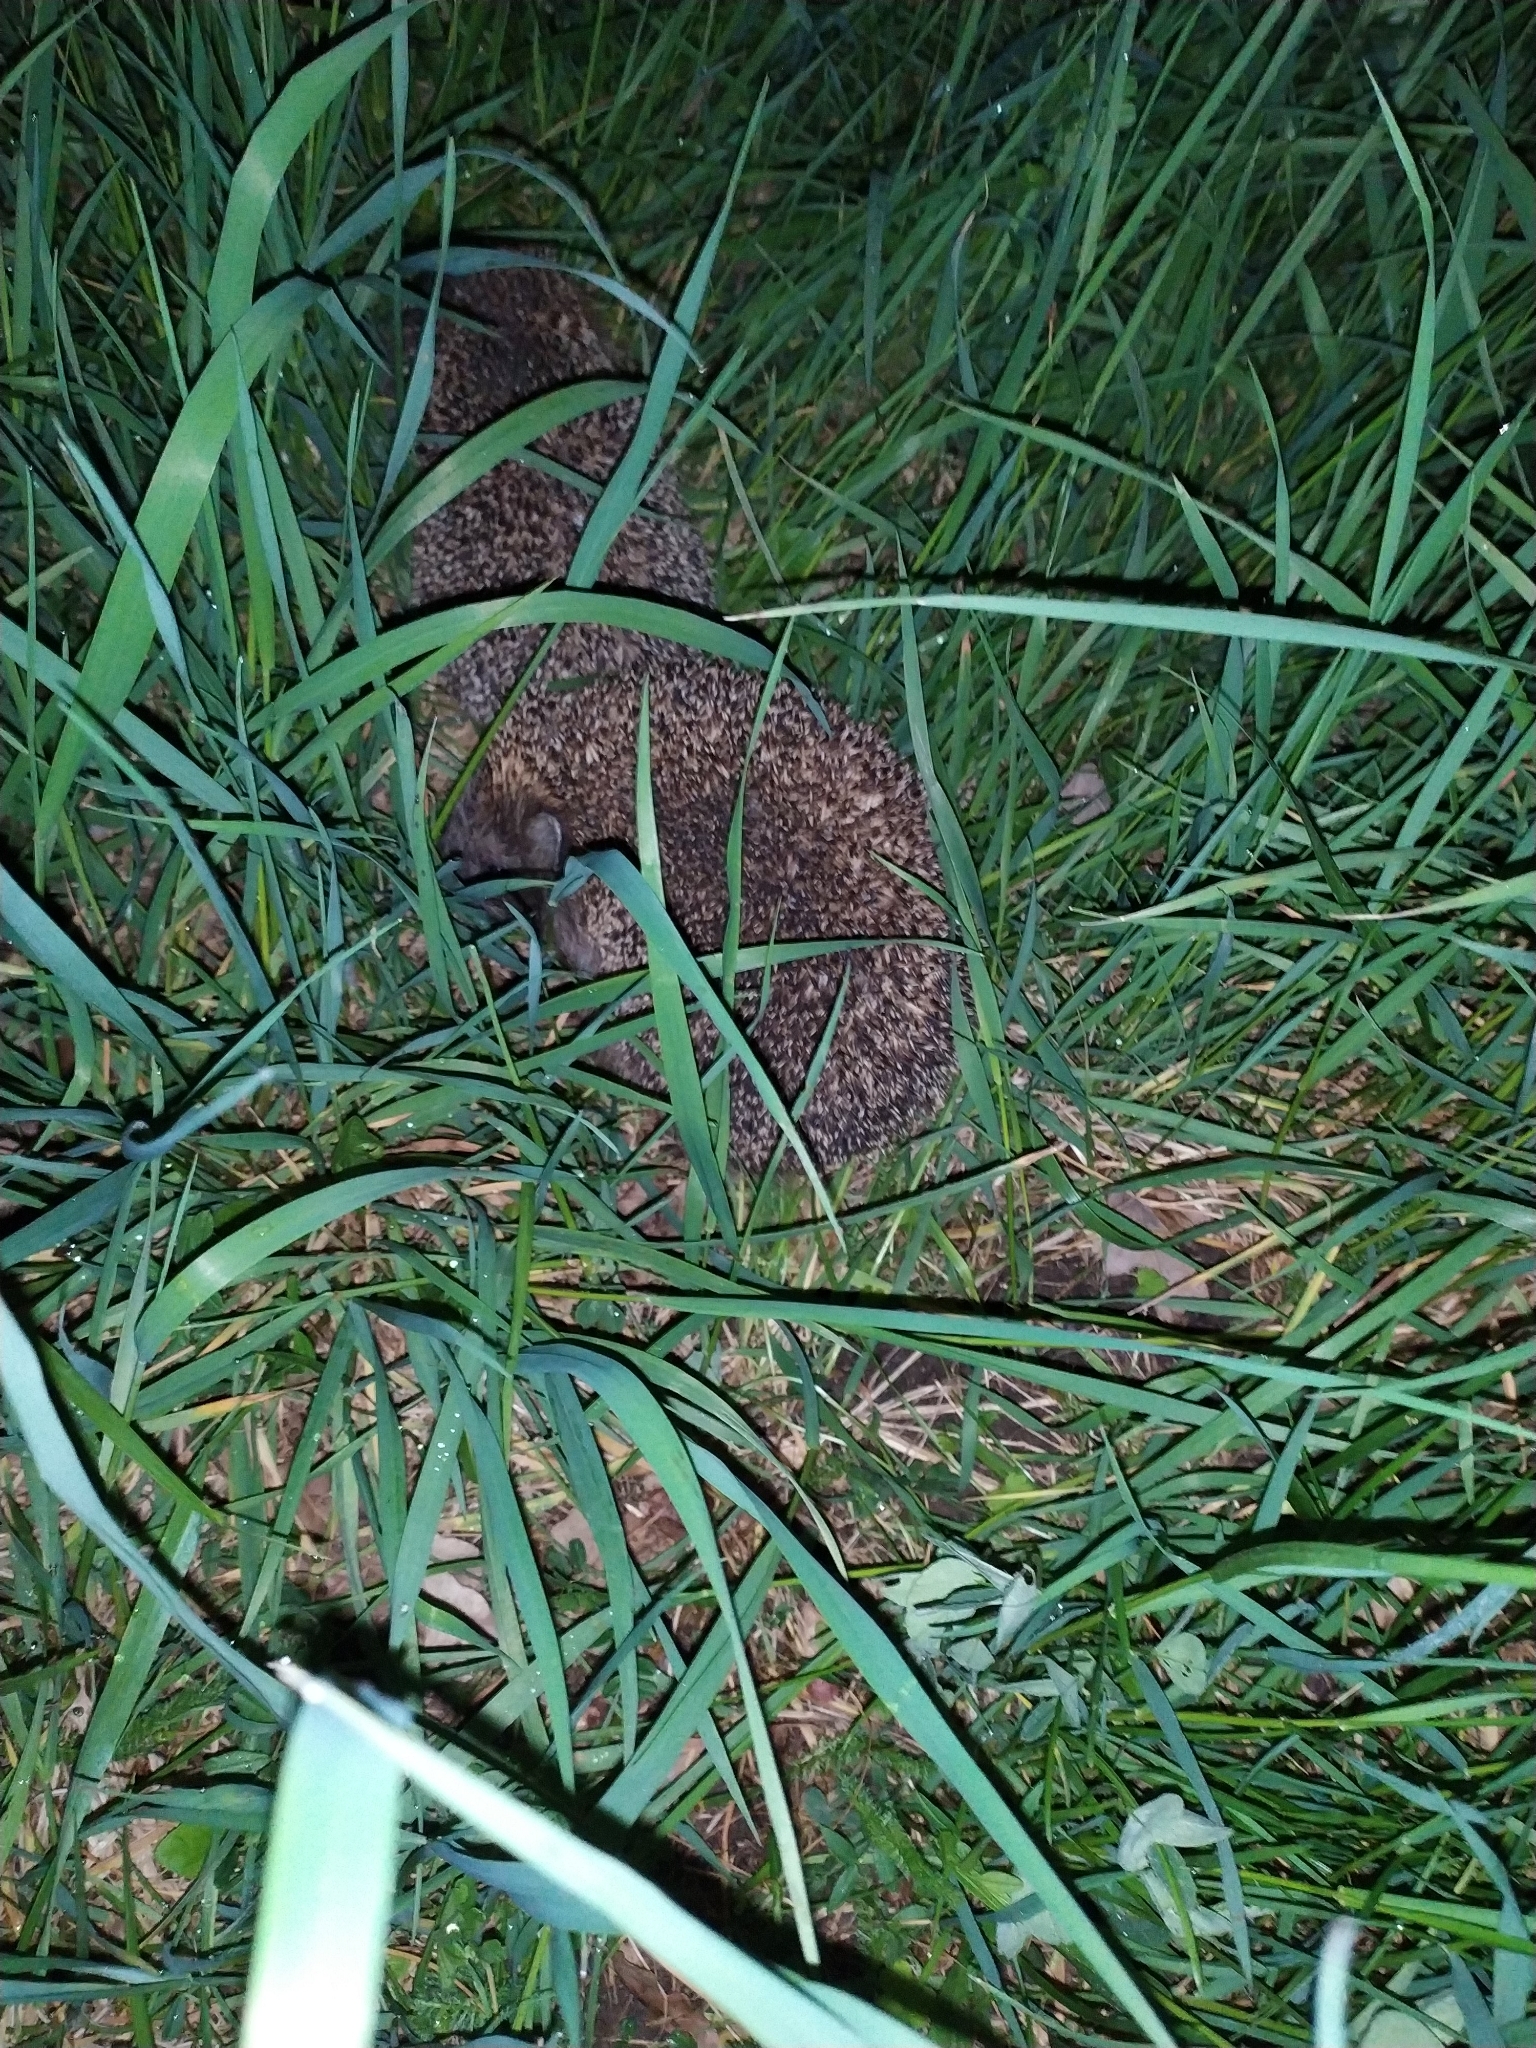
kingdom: Animalia
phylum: Chordata
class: Mammalia
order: Erinaceomorpha
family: Erinaceidae
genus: Erinaceus
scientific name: Erinaceus roumanicus
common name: Northern white-breasted hedgehog
